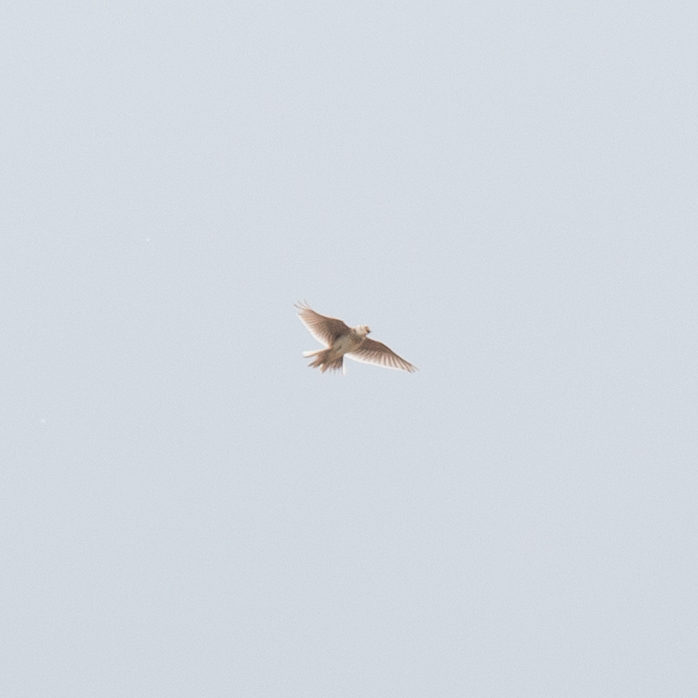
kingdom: Animalia
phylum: Chordata
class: Aves
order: Passeriformes
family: Alaudidae
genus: Alauda
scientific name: Alauda arvensis
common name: Eurasian skylark
